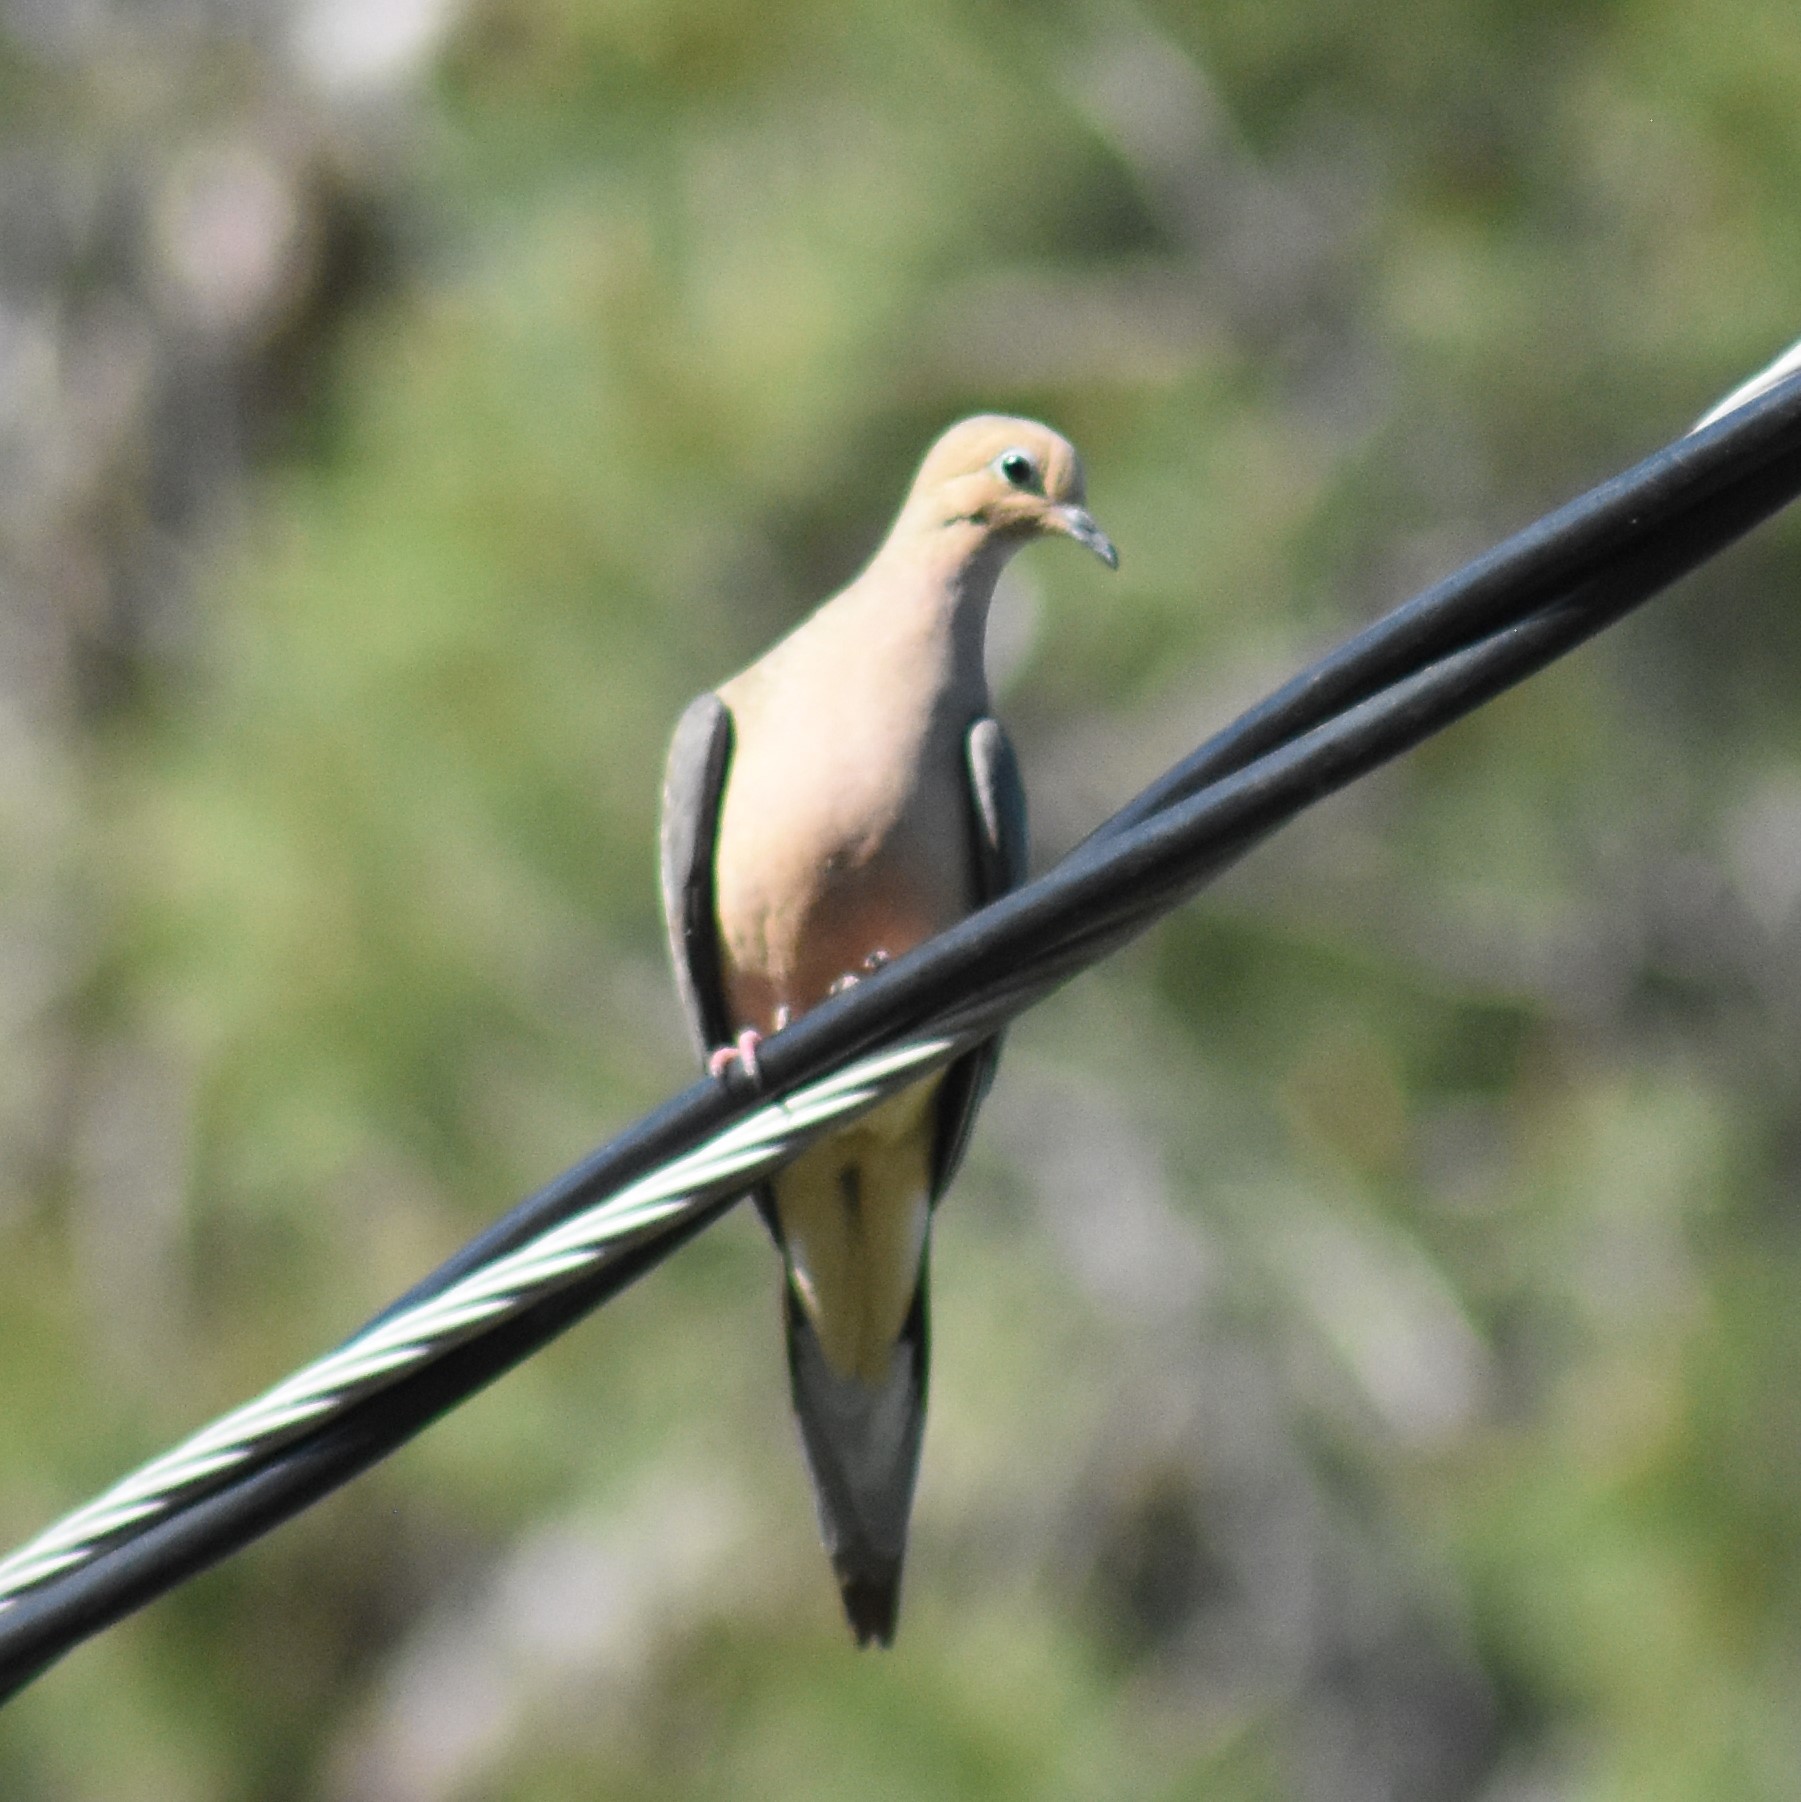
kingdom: Animalia
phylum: Chordata
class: Aves
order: Columbiformes
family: Columbidae
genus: Zenaida
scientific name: Zenaida macroura
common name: Mourning dove
